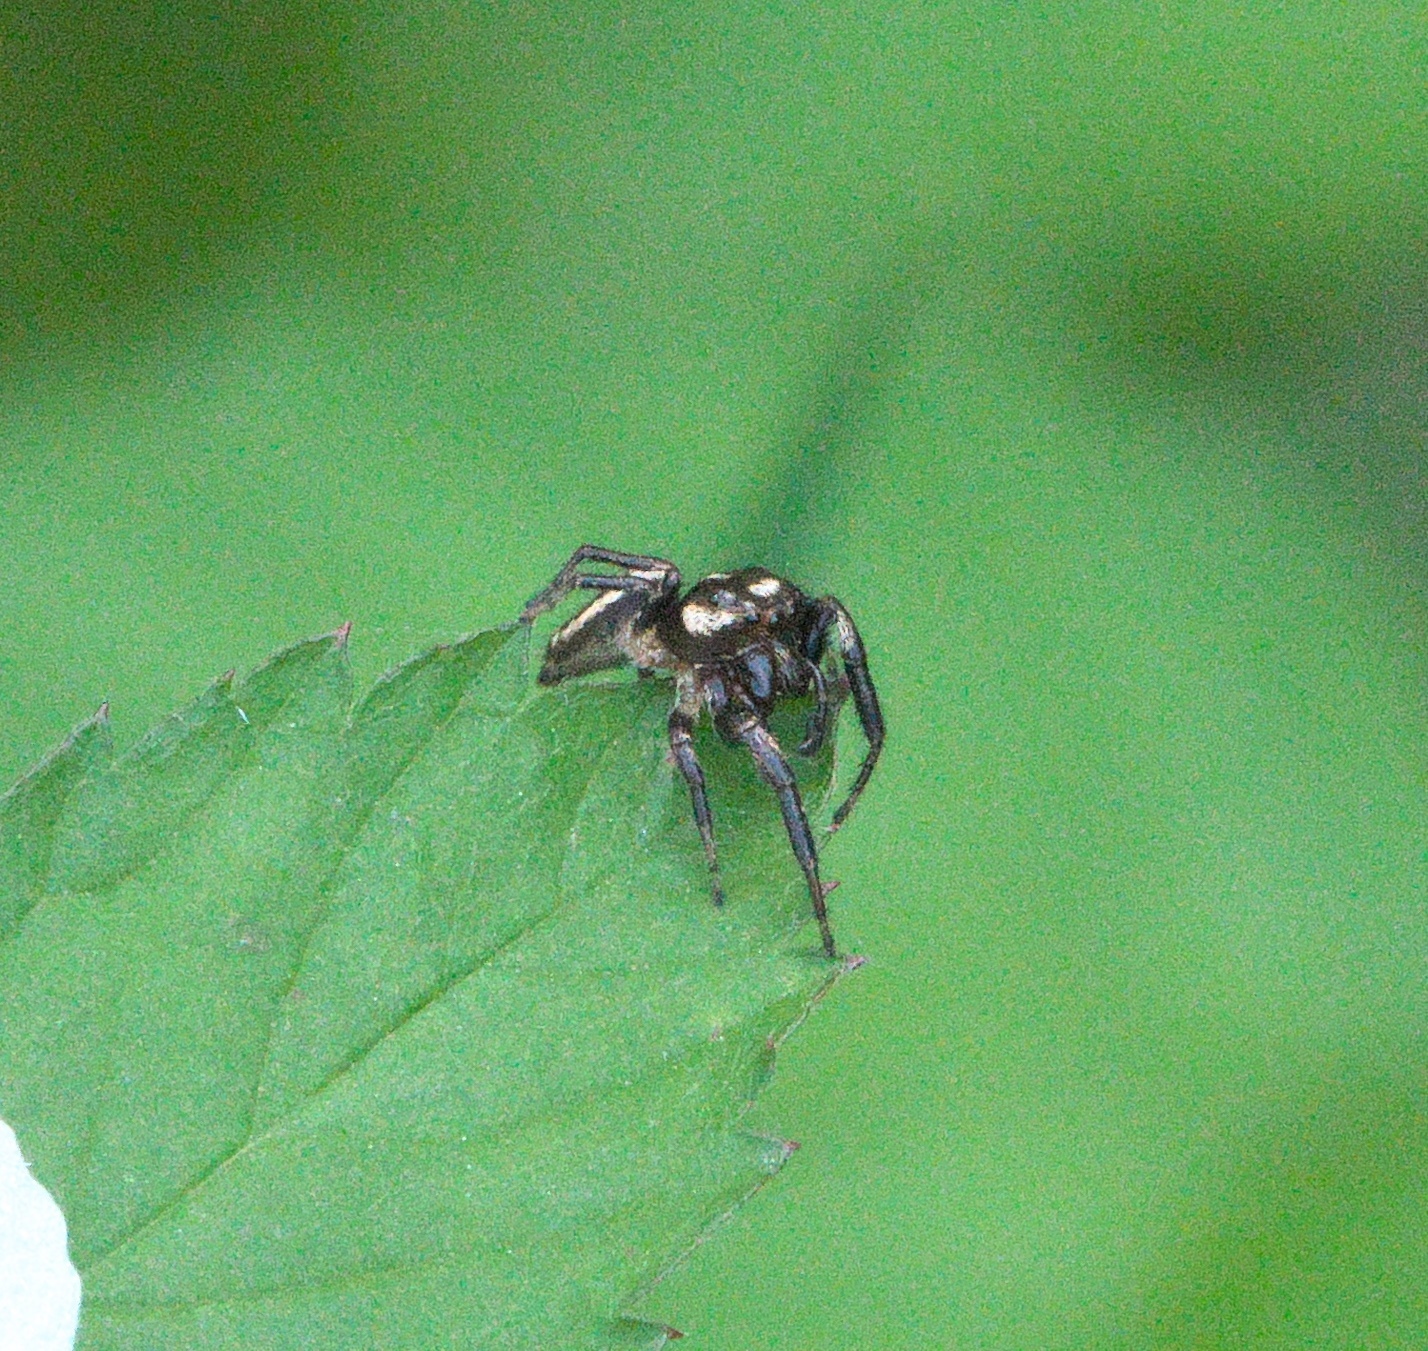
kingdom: Animalia
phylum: Arthropoda
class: Arachnida
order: Araneae
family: Salticidae
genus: Eris
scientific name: Eris militaris
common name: Bronze jumper
